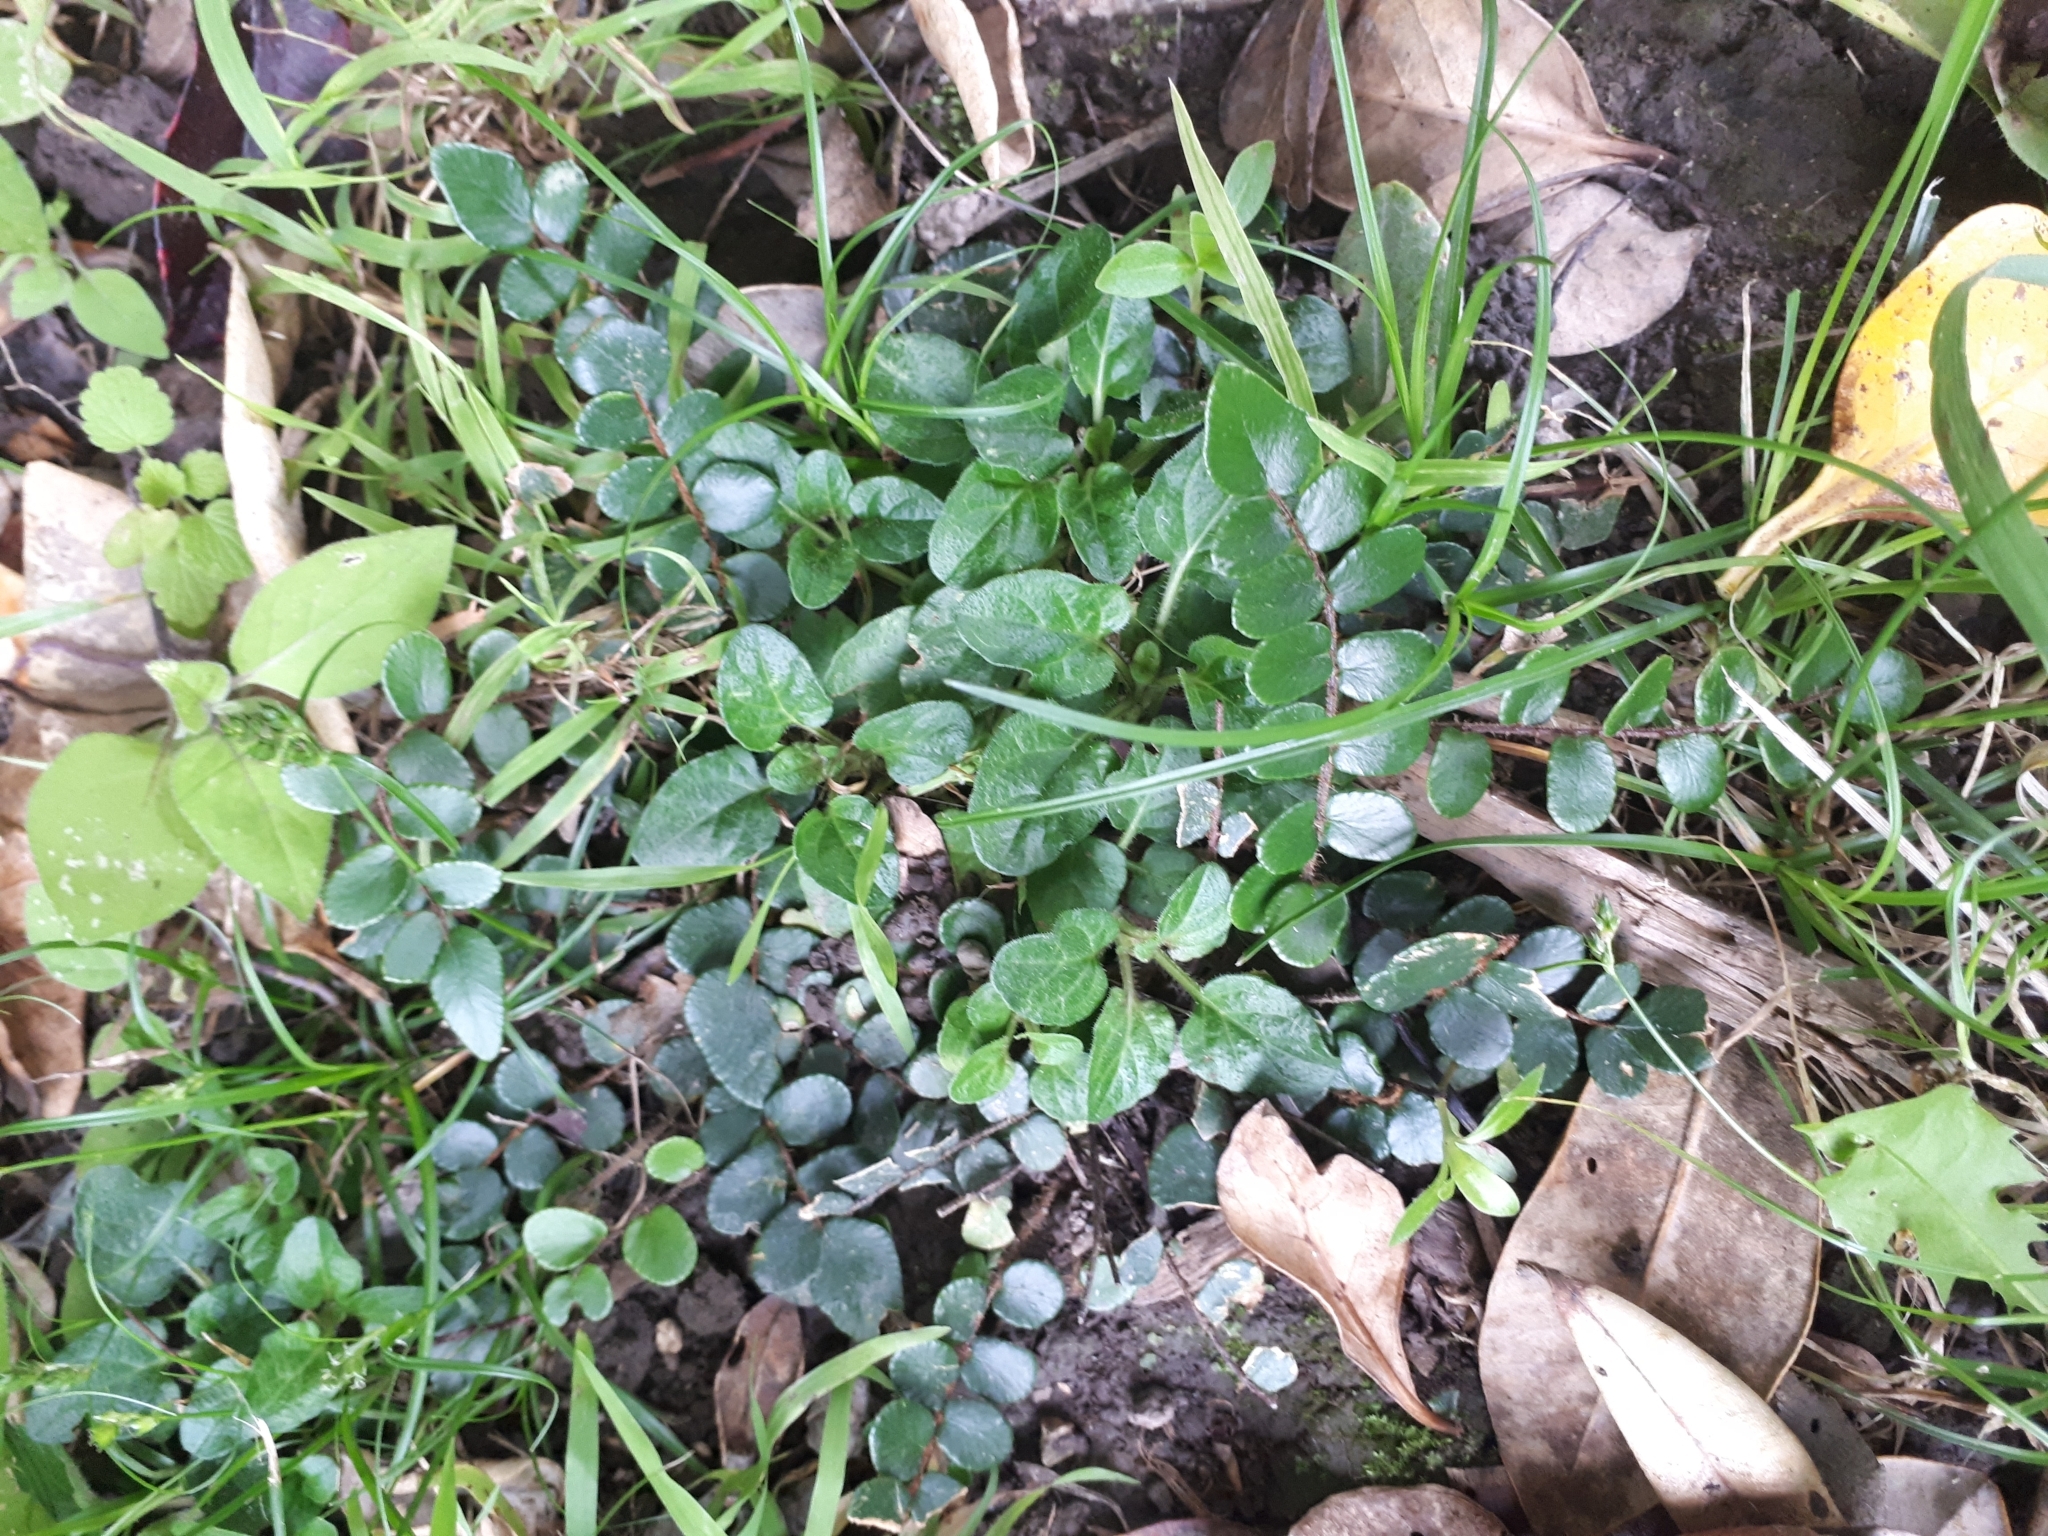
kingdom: Plantae
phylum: Tracheophyta
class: Polypodiopsida
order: Polypodiales
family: Pteridaceae
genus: Pellaea
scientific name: Pellaea rotundifolia
